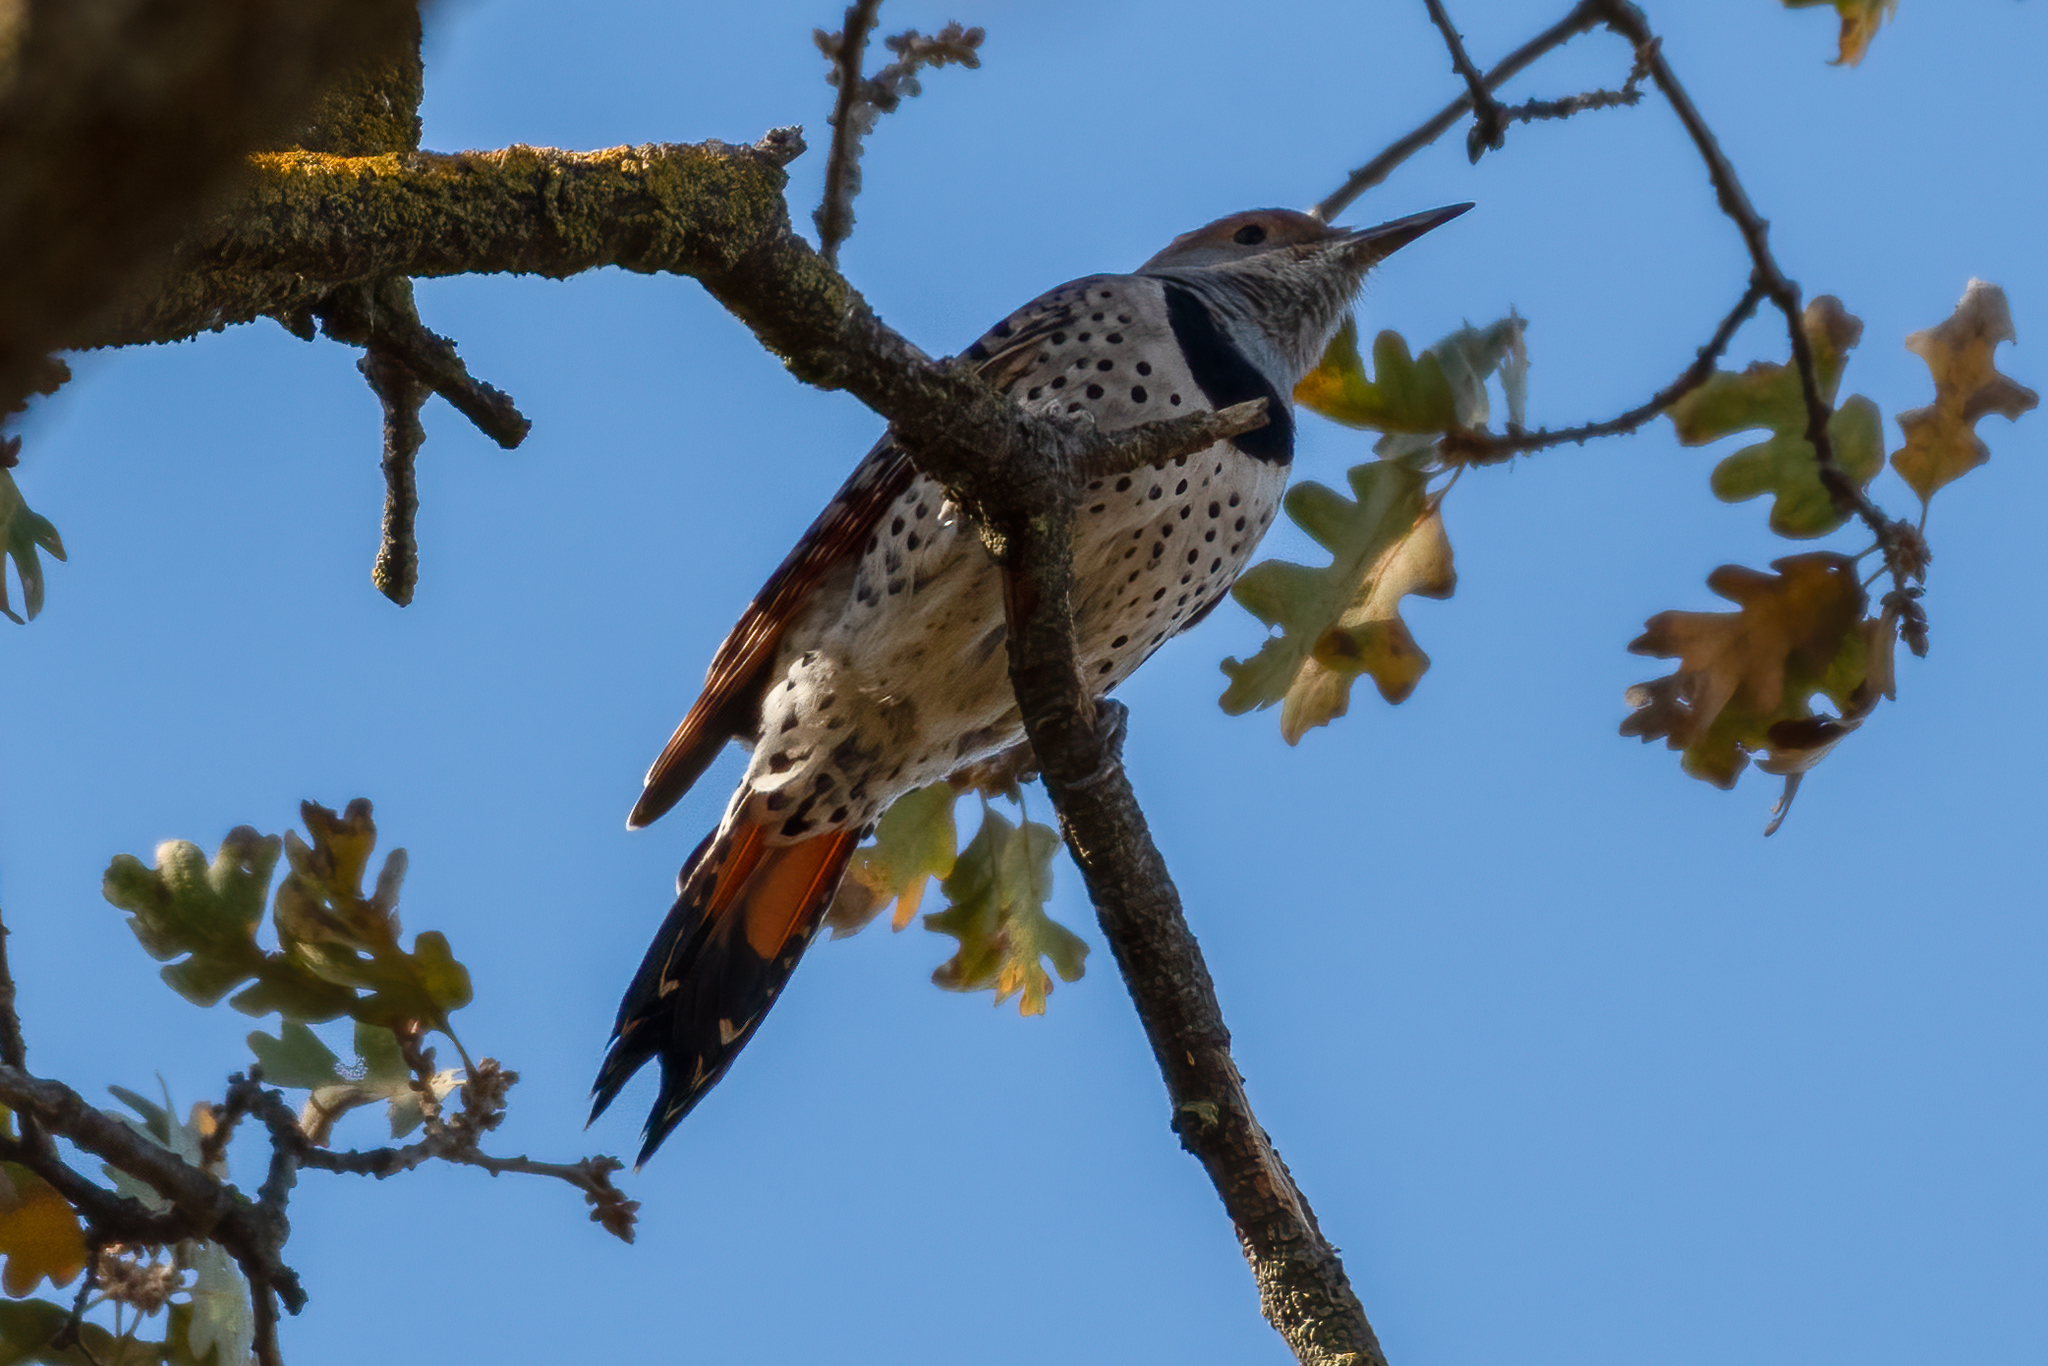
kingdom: Animalia
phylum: Chordata
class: Aves
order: Piciformes
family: Picidae
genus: Colaptes
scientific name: Colaptes auratus
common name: Northern flicker
